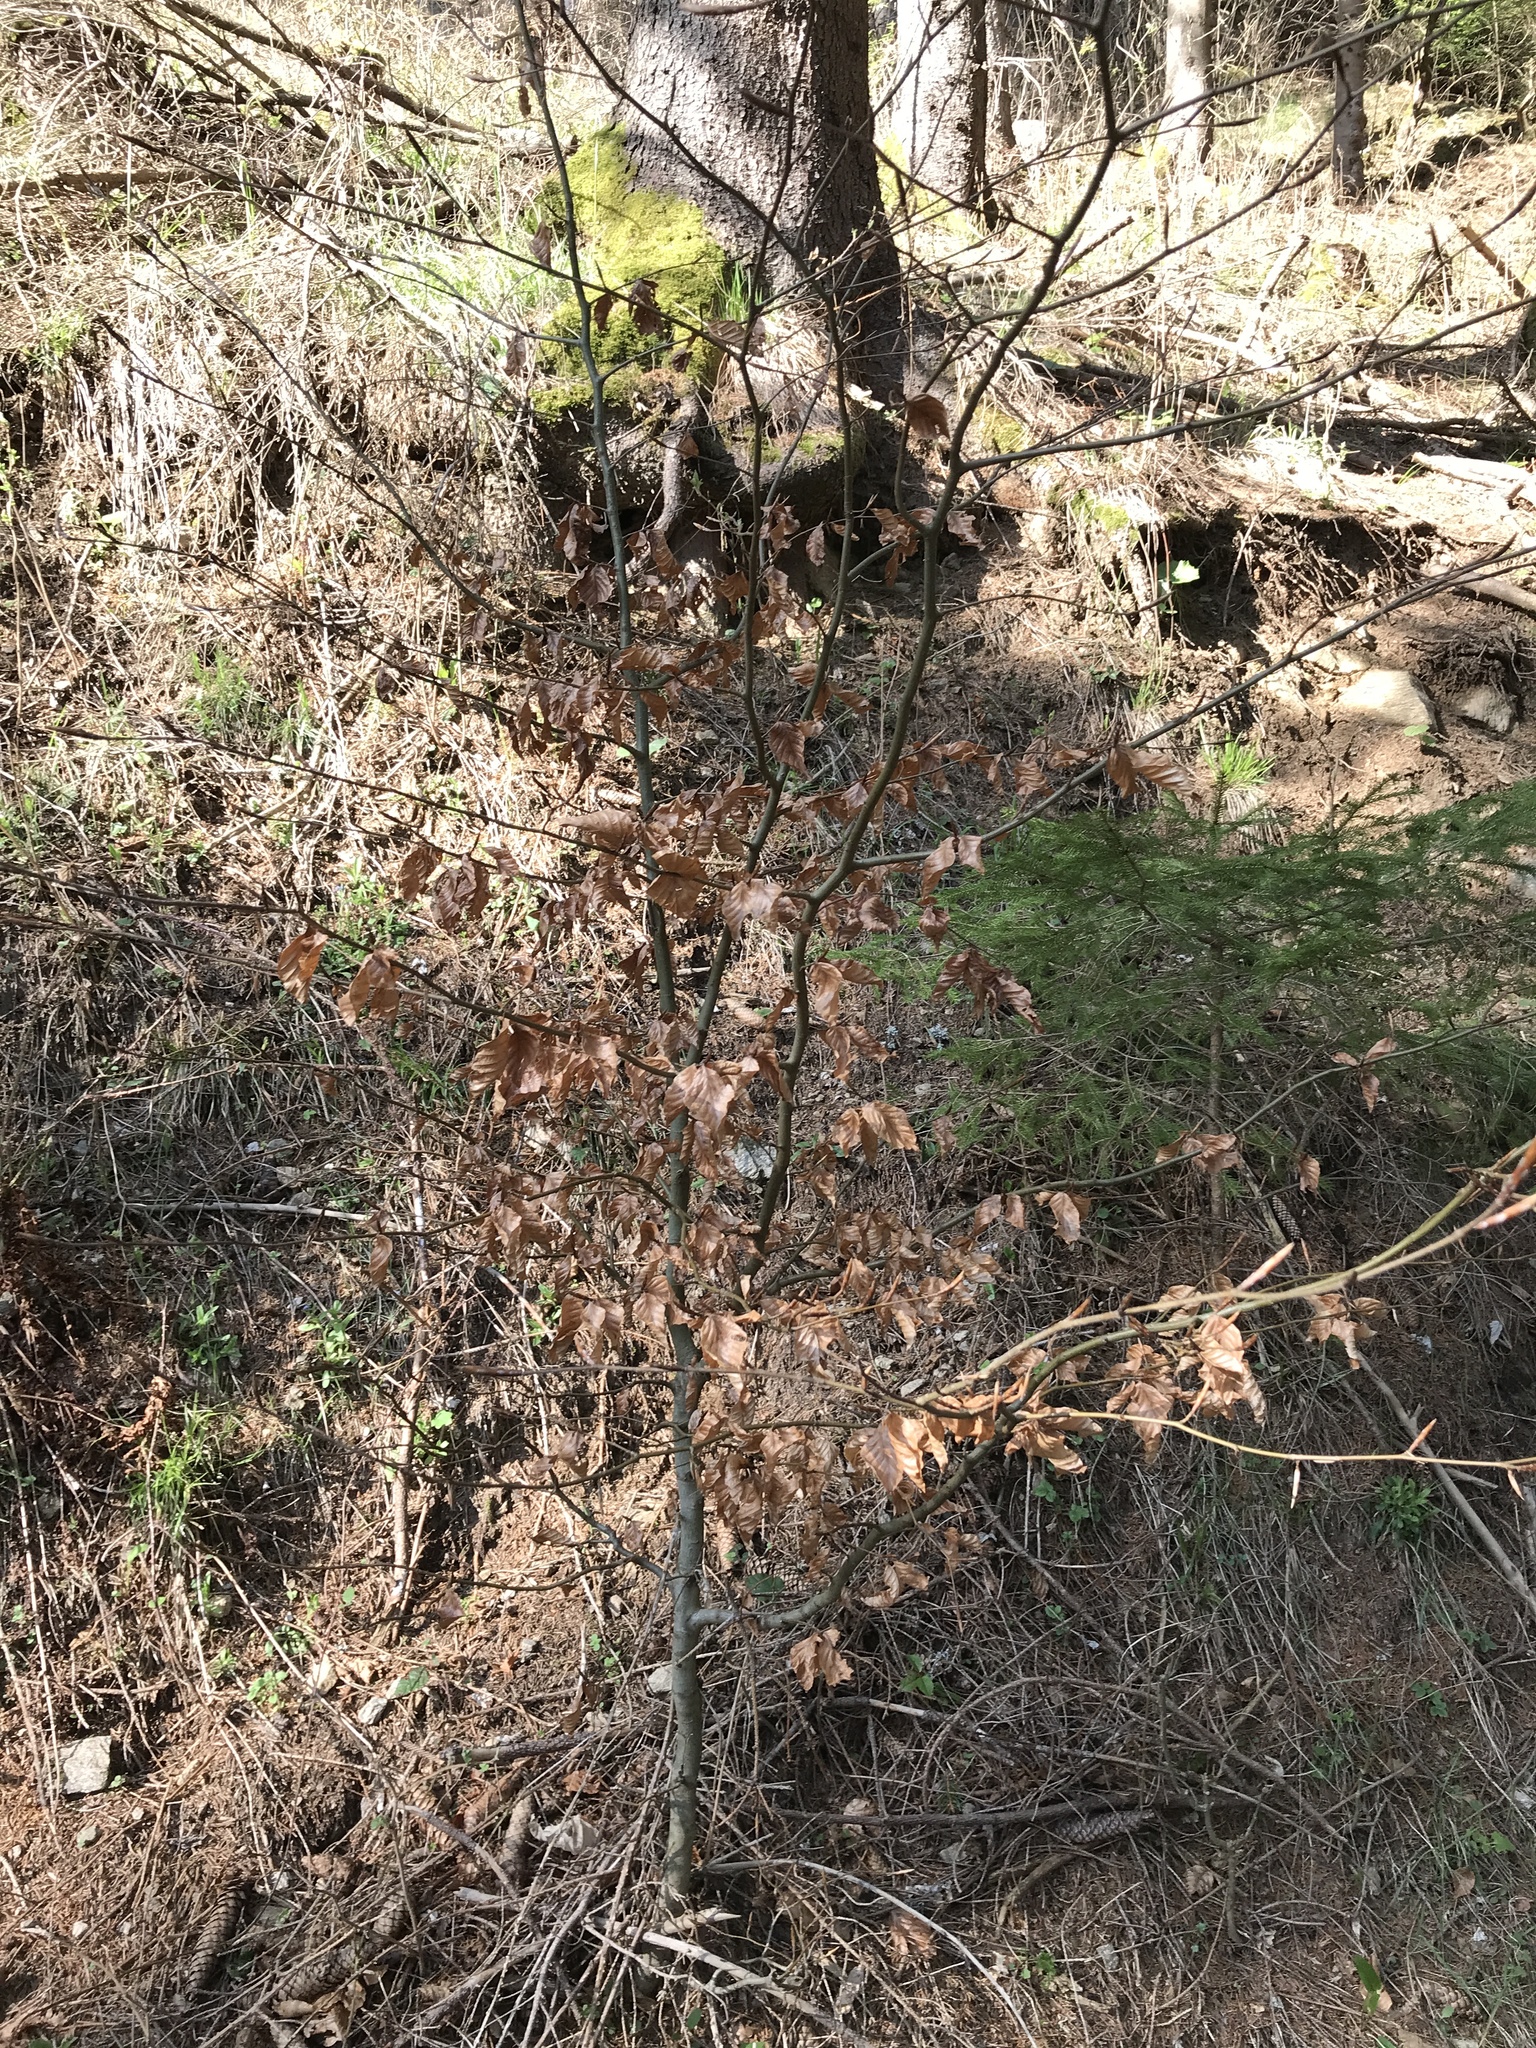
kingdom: Plantae
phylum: Tracheophyta
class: Magnoliopsida
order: Fagales
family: Fagaceae
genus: Fagus
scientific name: Fagus sylvatica
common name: Beech
